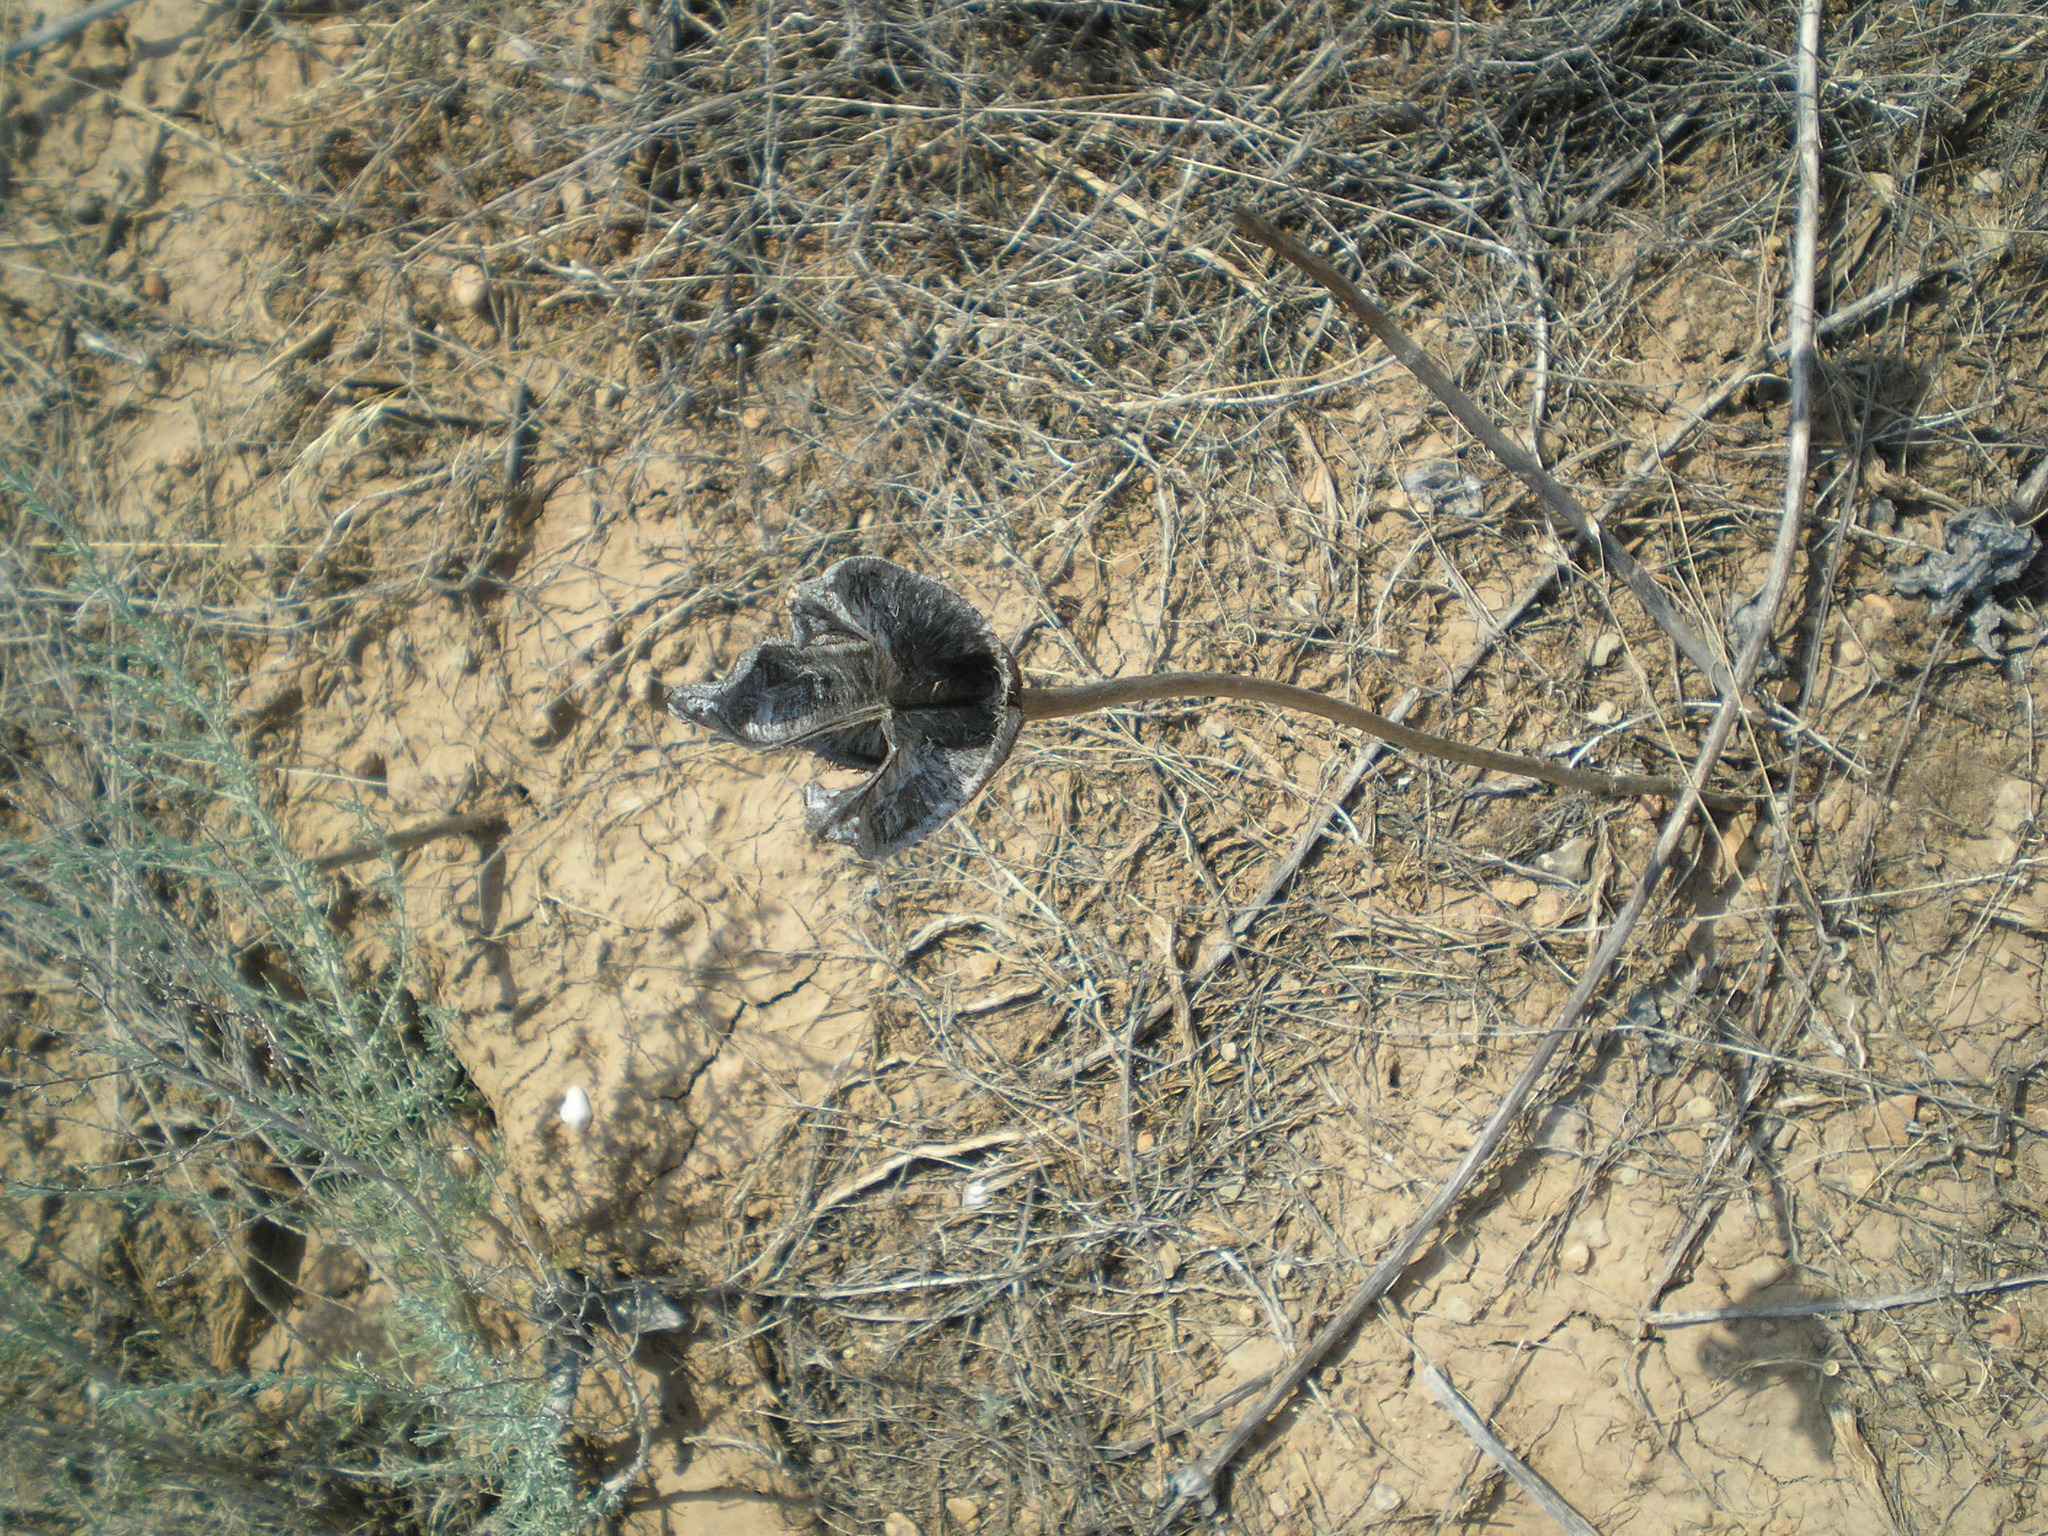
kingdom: Plantae
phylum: Tracheophyta
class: Liliopsida
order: Liliales
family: Liliaceae
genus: Tulipa
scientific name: Tulipa suaveolens
